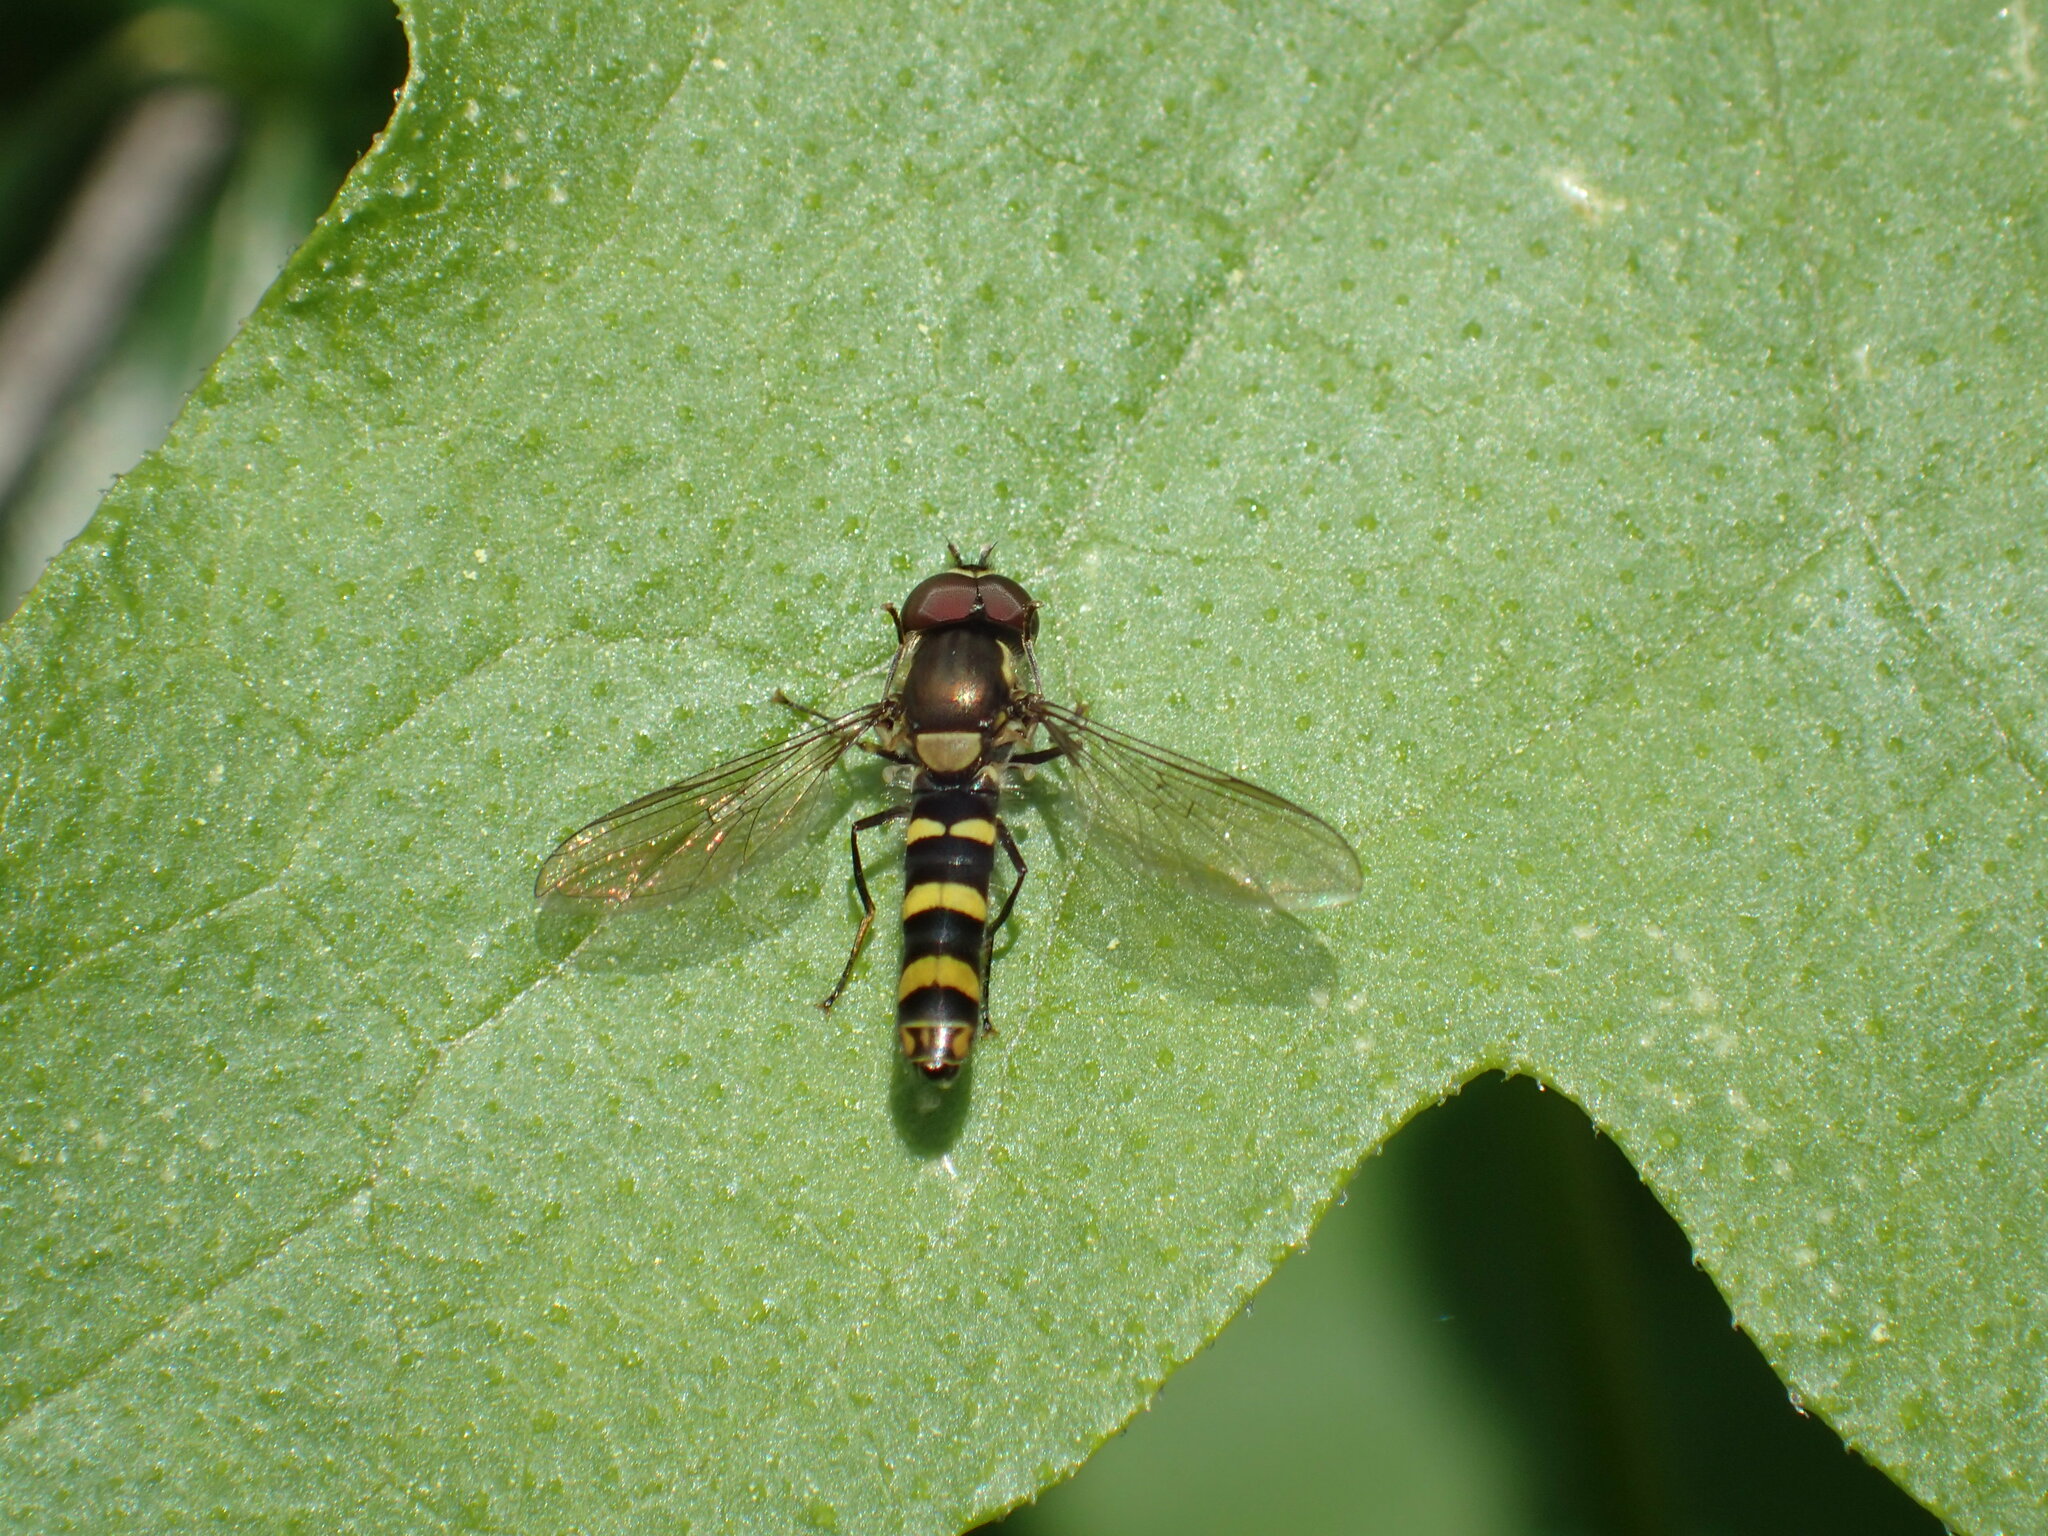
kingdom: Animalia
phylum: Arthropoda
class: Insecta
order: Diptera
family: Syrphidae
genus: Fazia
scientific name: Fazia micrura
